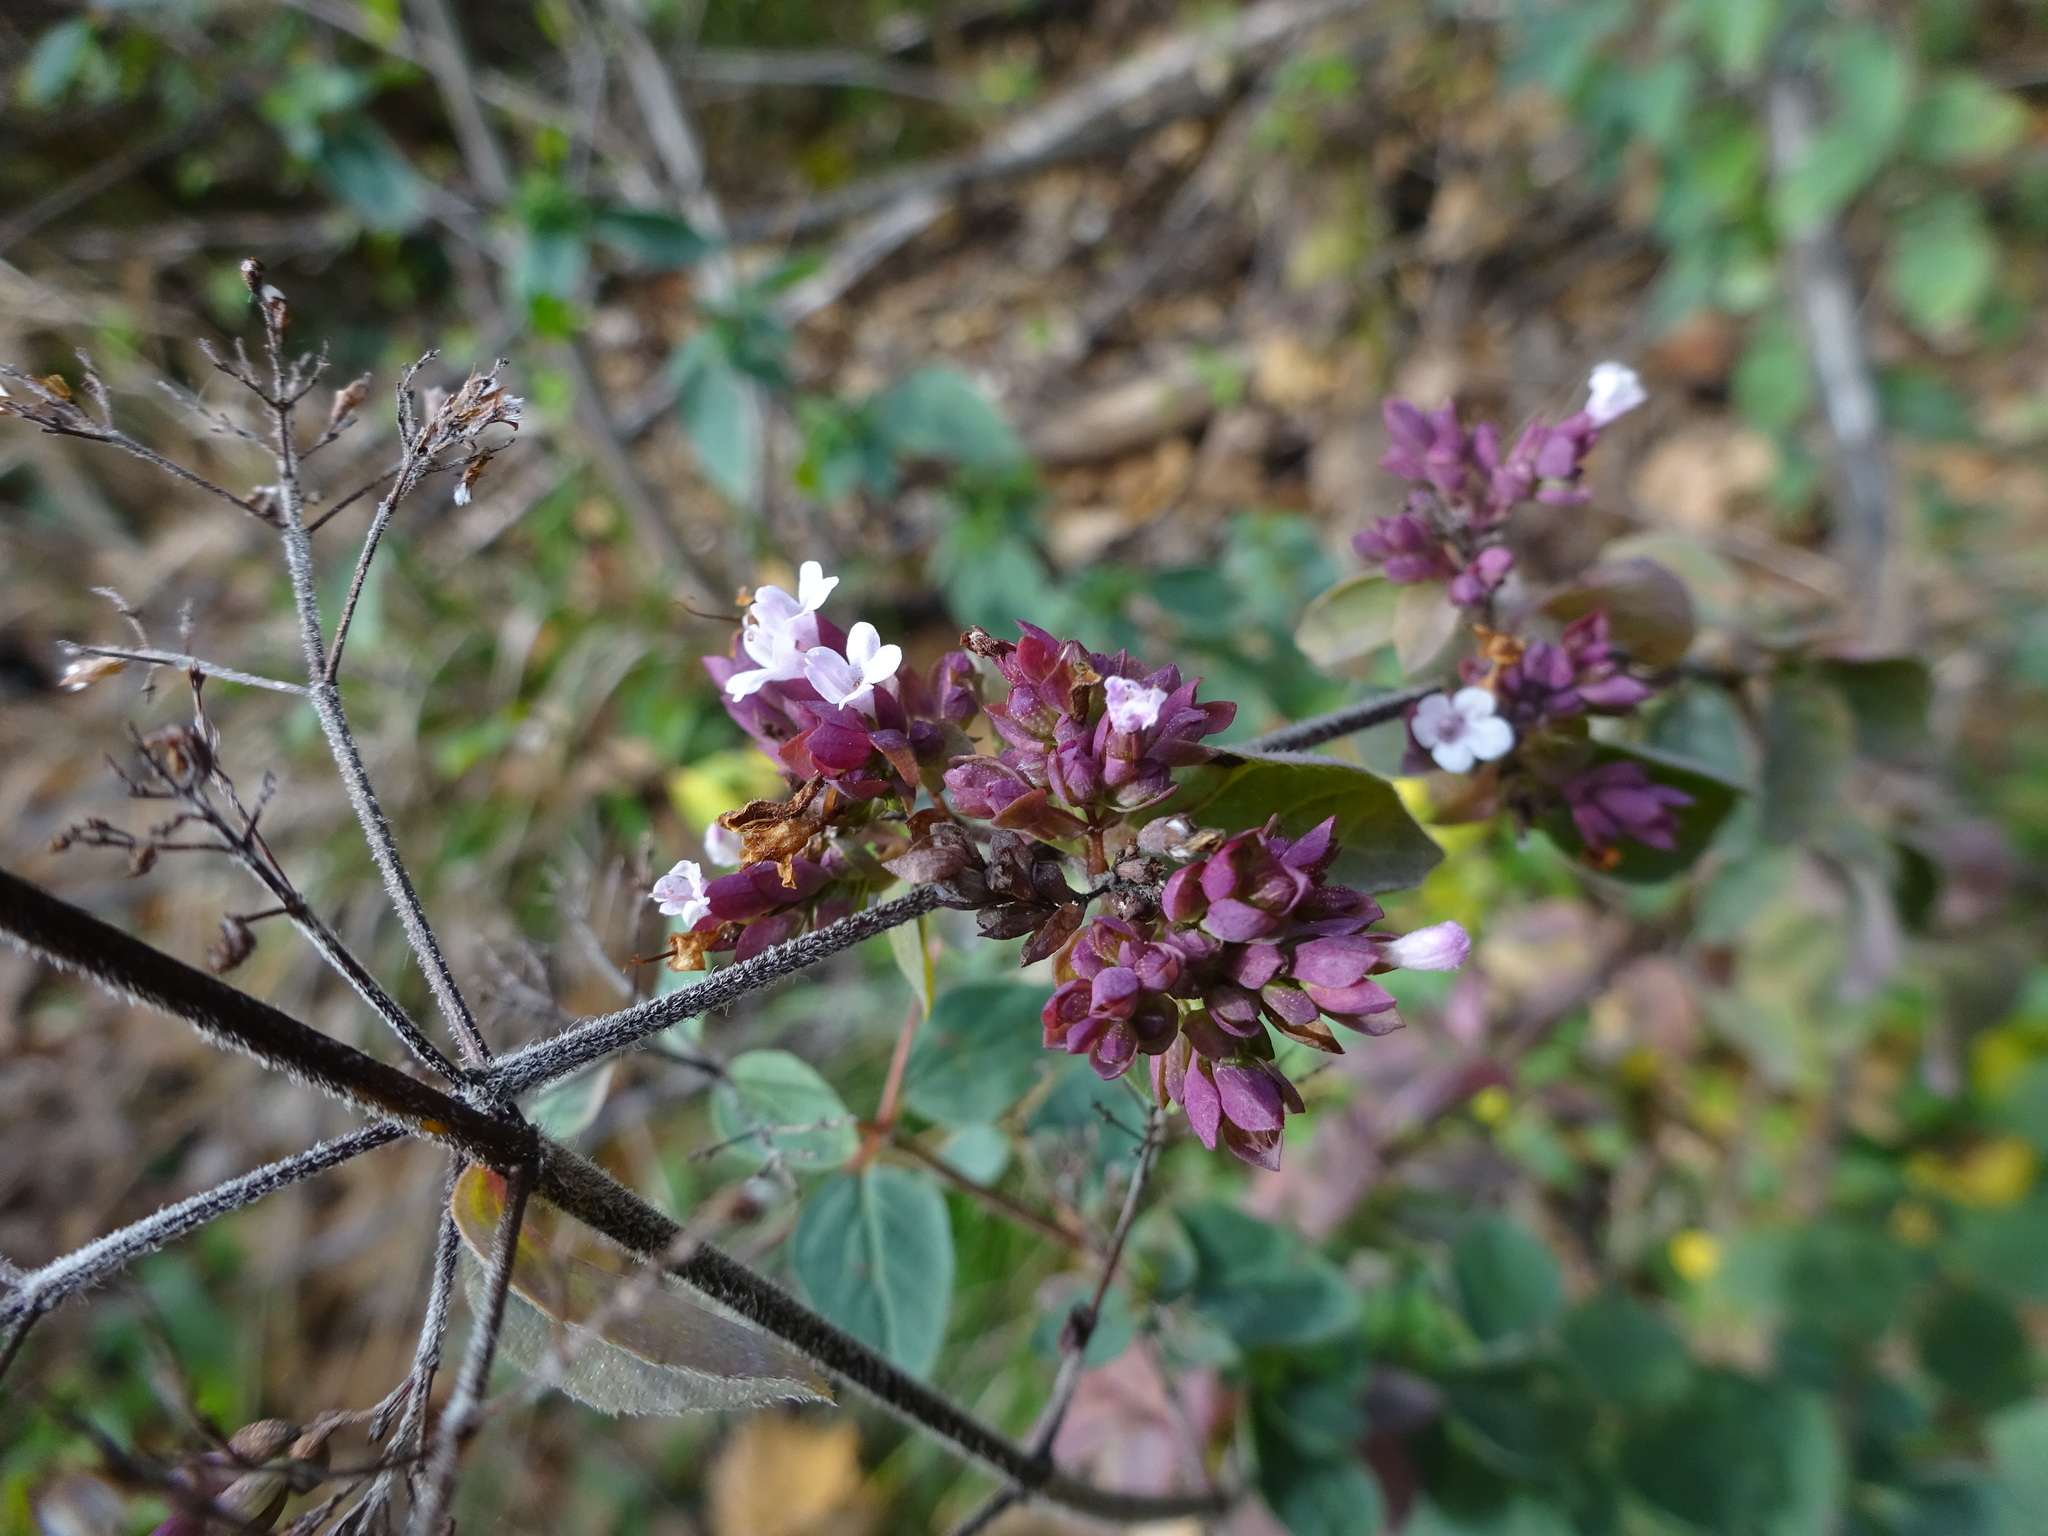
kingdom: Plantae
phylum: Tracheophyta
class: Magnoliopsida
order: Lamiales
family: Lamiaceae
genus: Origanum
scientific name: Origanum vulgare
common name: Wild marjoram
